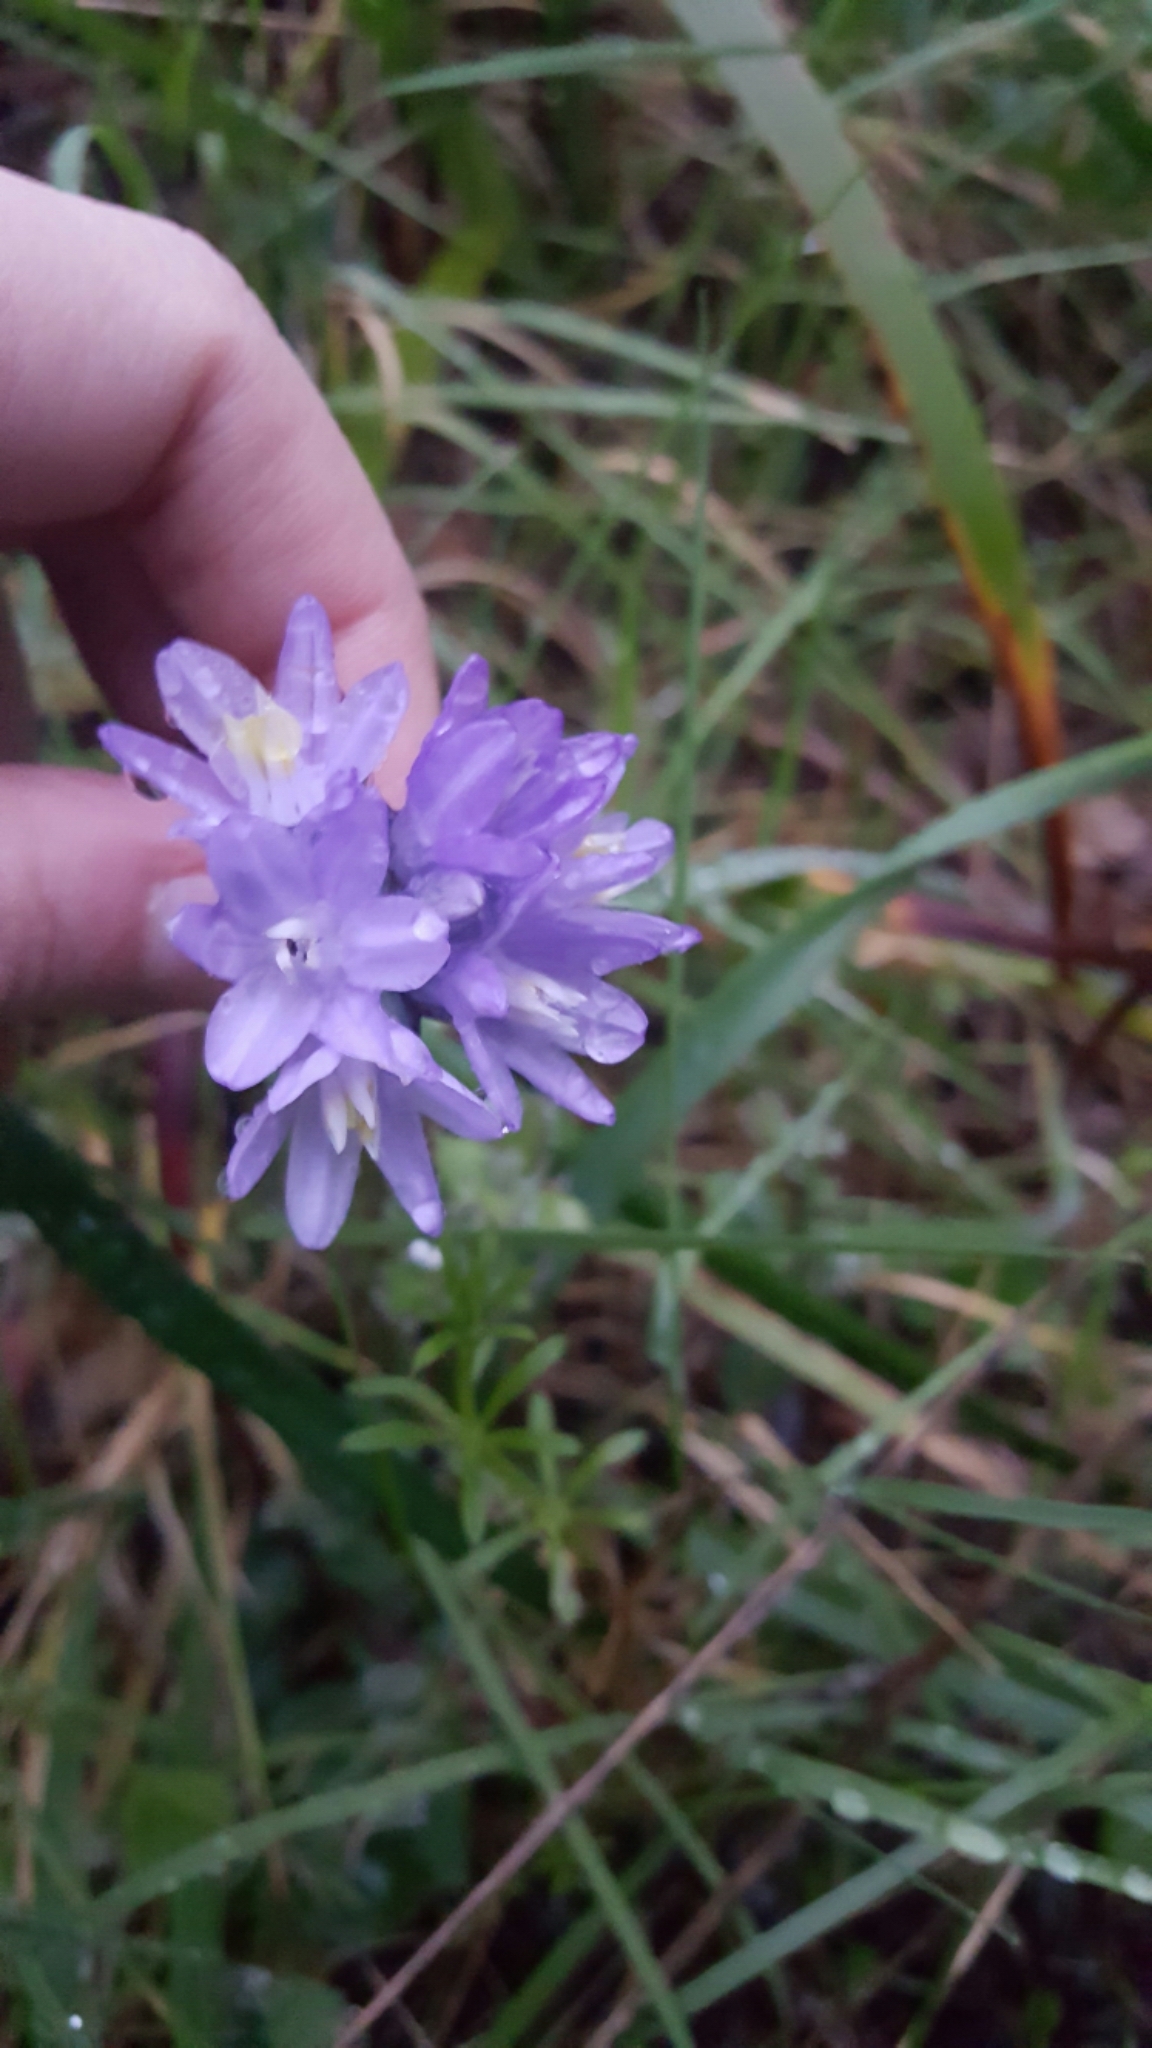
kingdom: Plantae
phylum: Tracheophyta
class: Liliopsida
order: Asparagales
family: Asparagaceae
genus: Dipterostemon
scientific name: Dipterostemon capitatus
